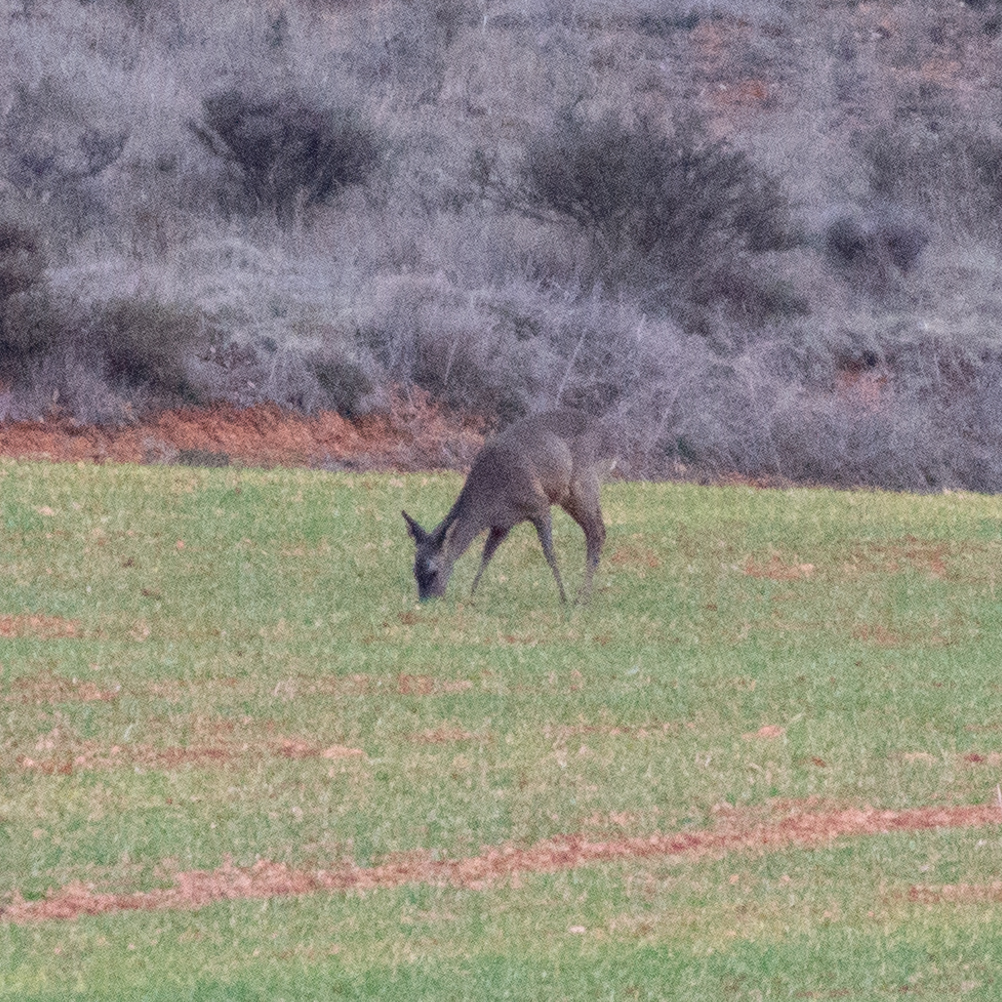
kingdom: Animalia
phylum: Chordata
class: Mammalia
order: Artiodactyla
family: Cervidae
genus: Capreolus
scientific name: Capreolus capreolus
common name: Western roe deer
